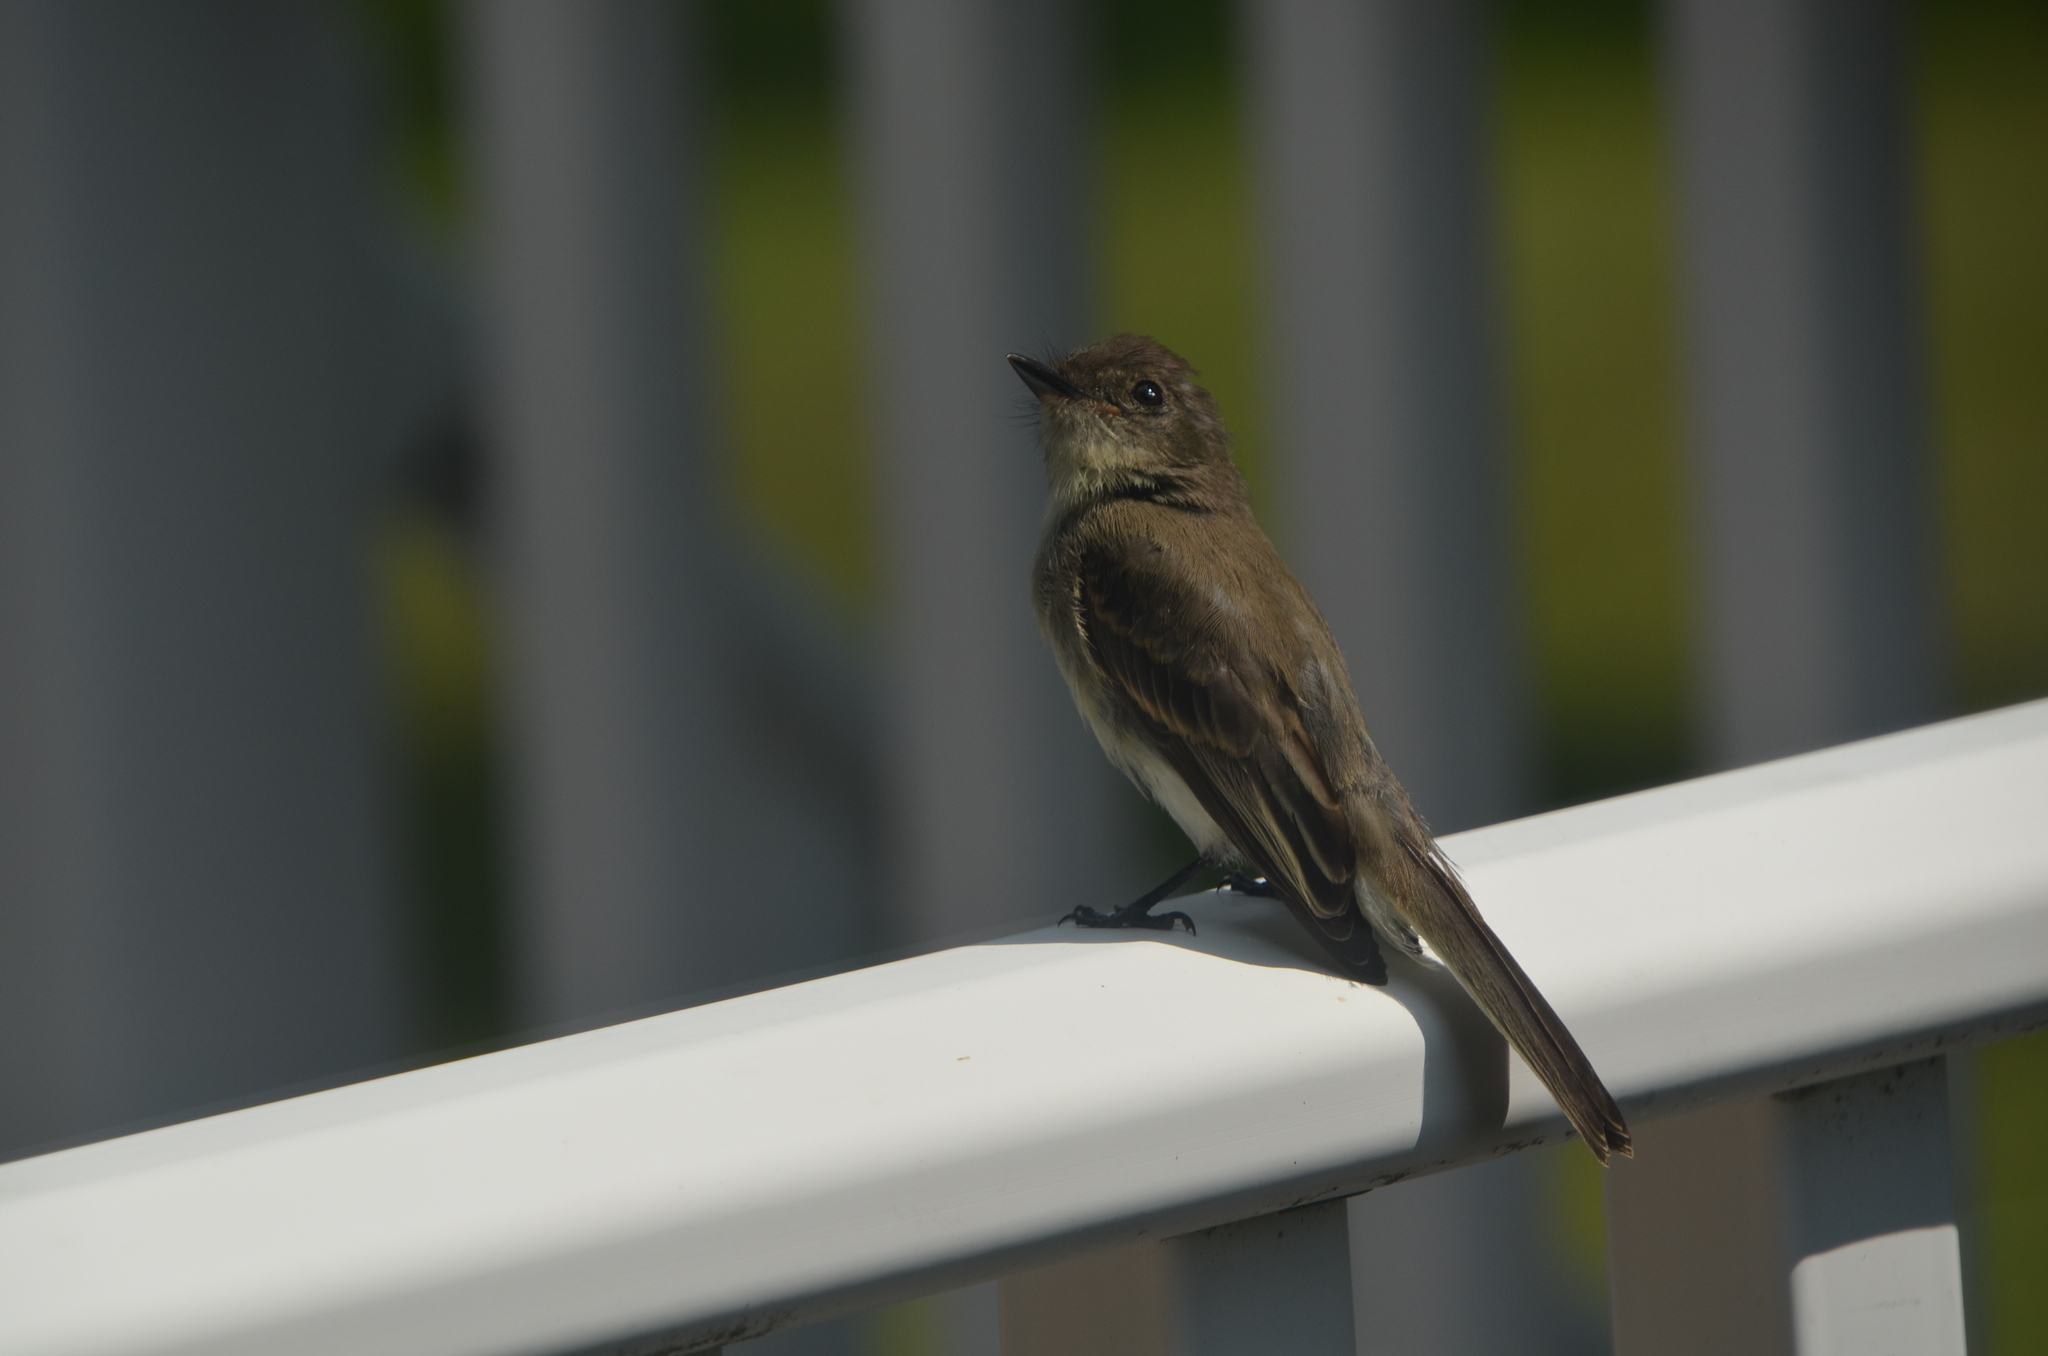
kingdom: Animalia
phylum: Chordata
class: Aves
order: Passeriformes
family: Tyrannidae
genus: Sayornis
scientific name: Sayornis phoebe
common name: Eastern phoebe
